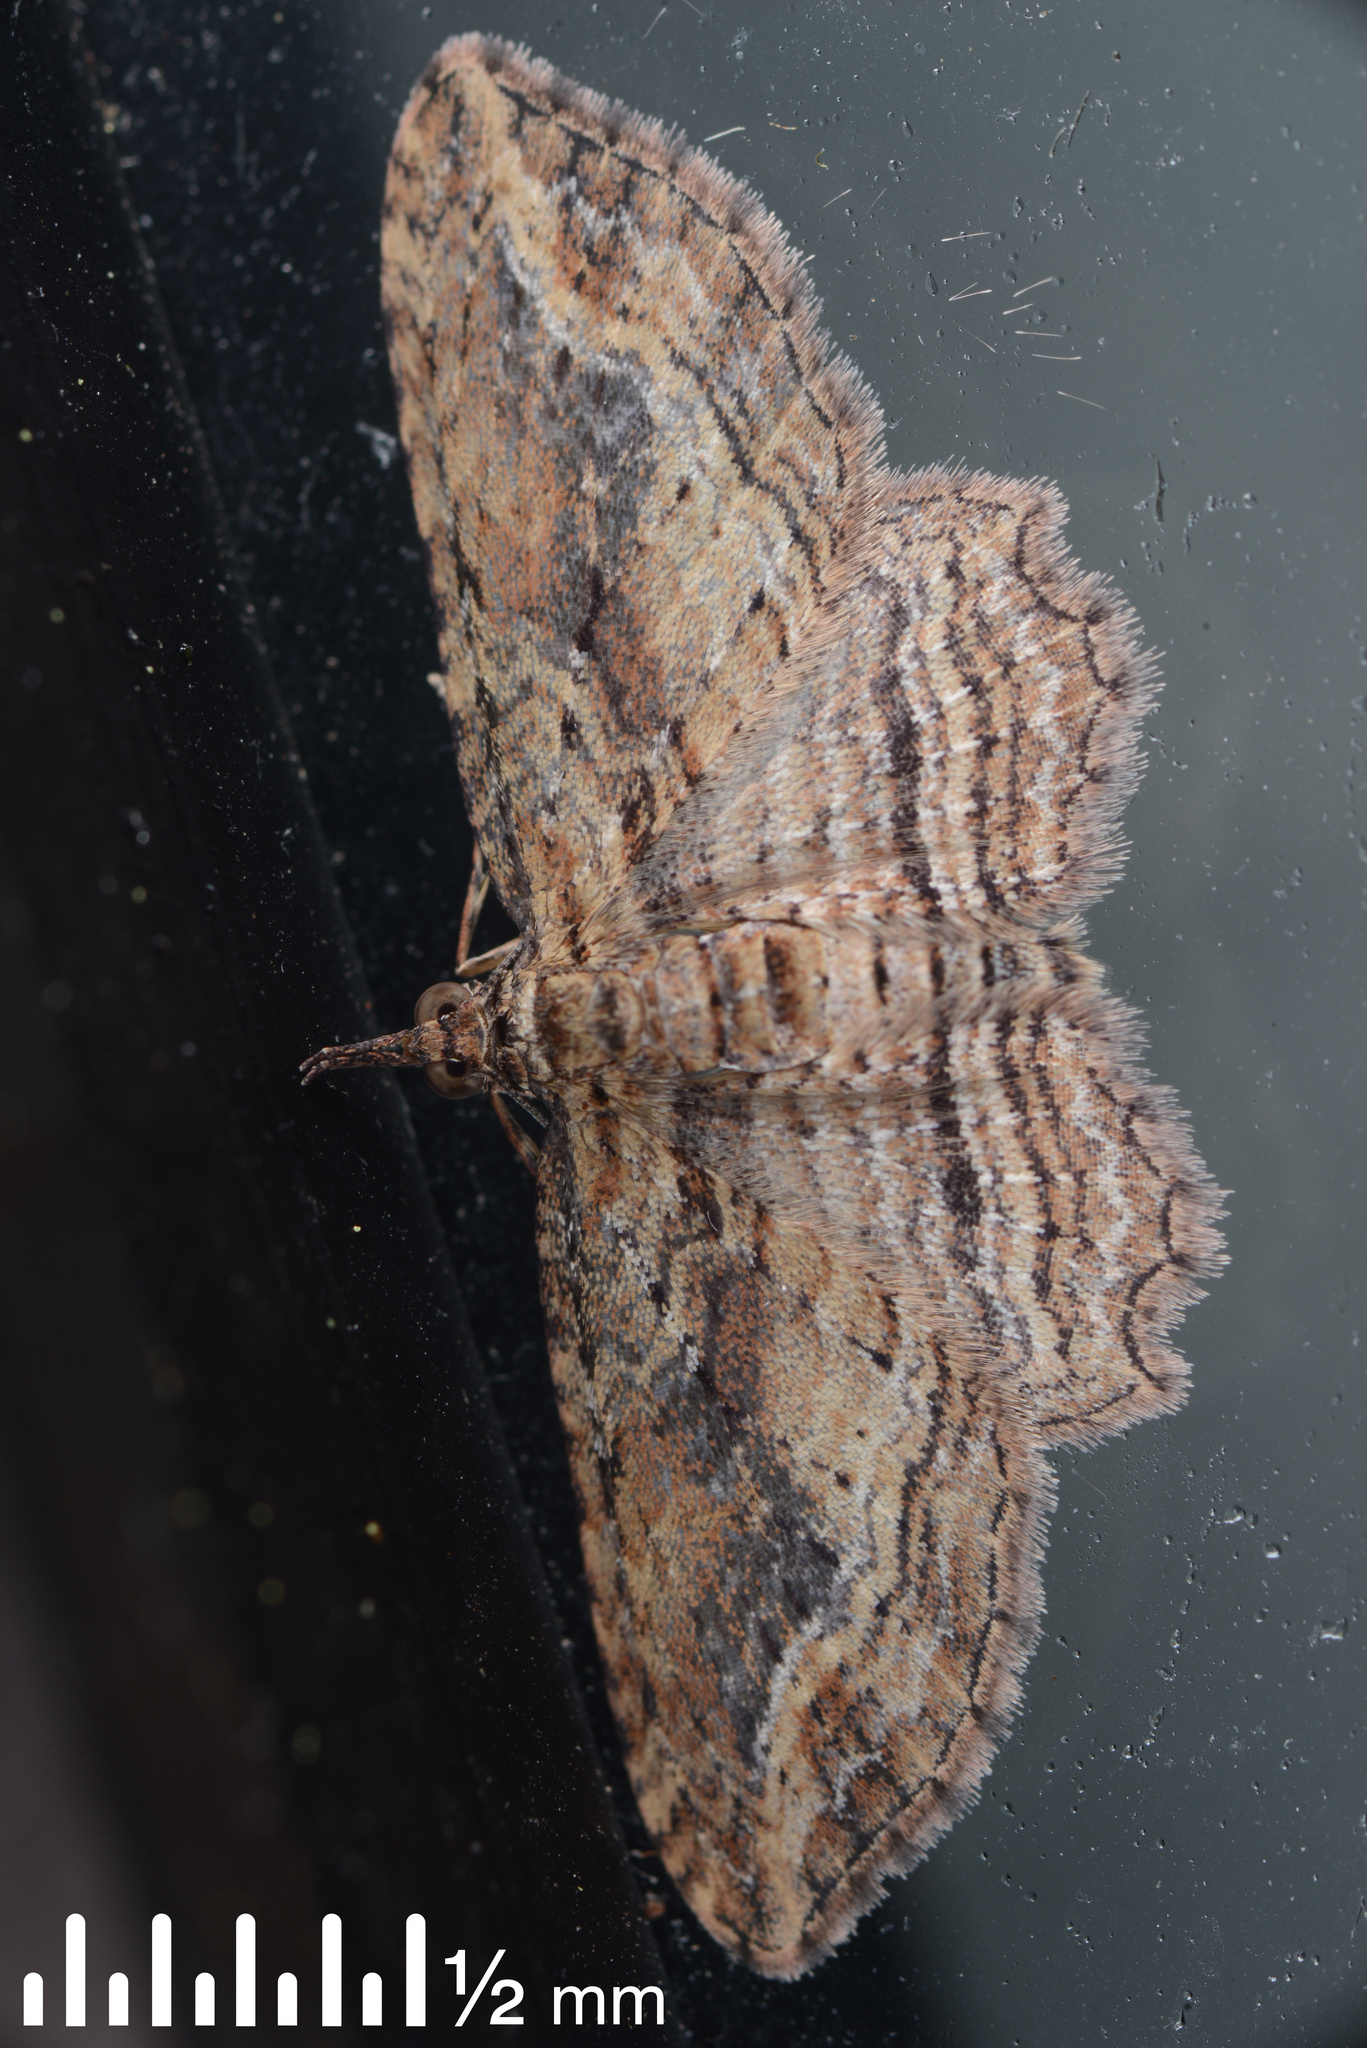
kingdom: Animalia
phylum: Arthropoda
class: Insecta
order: Lepidoptera
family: Geometridae
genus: Chloroclystis
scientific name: Chloroclystis filata
